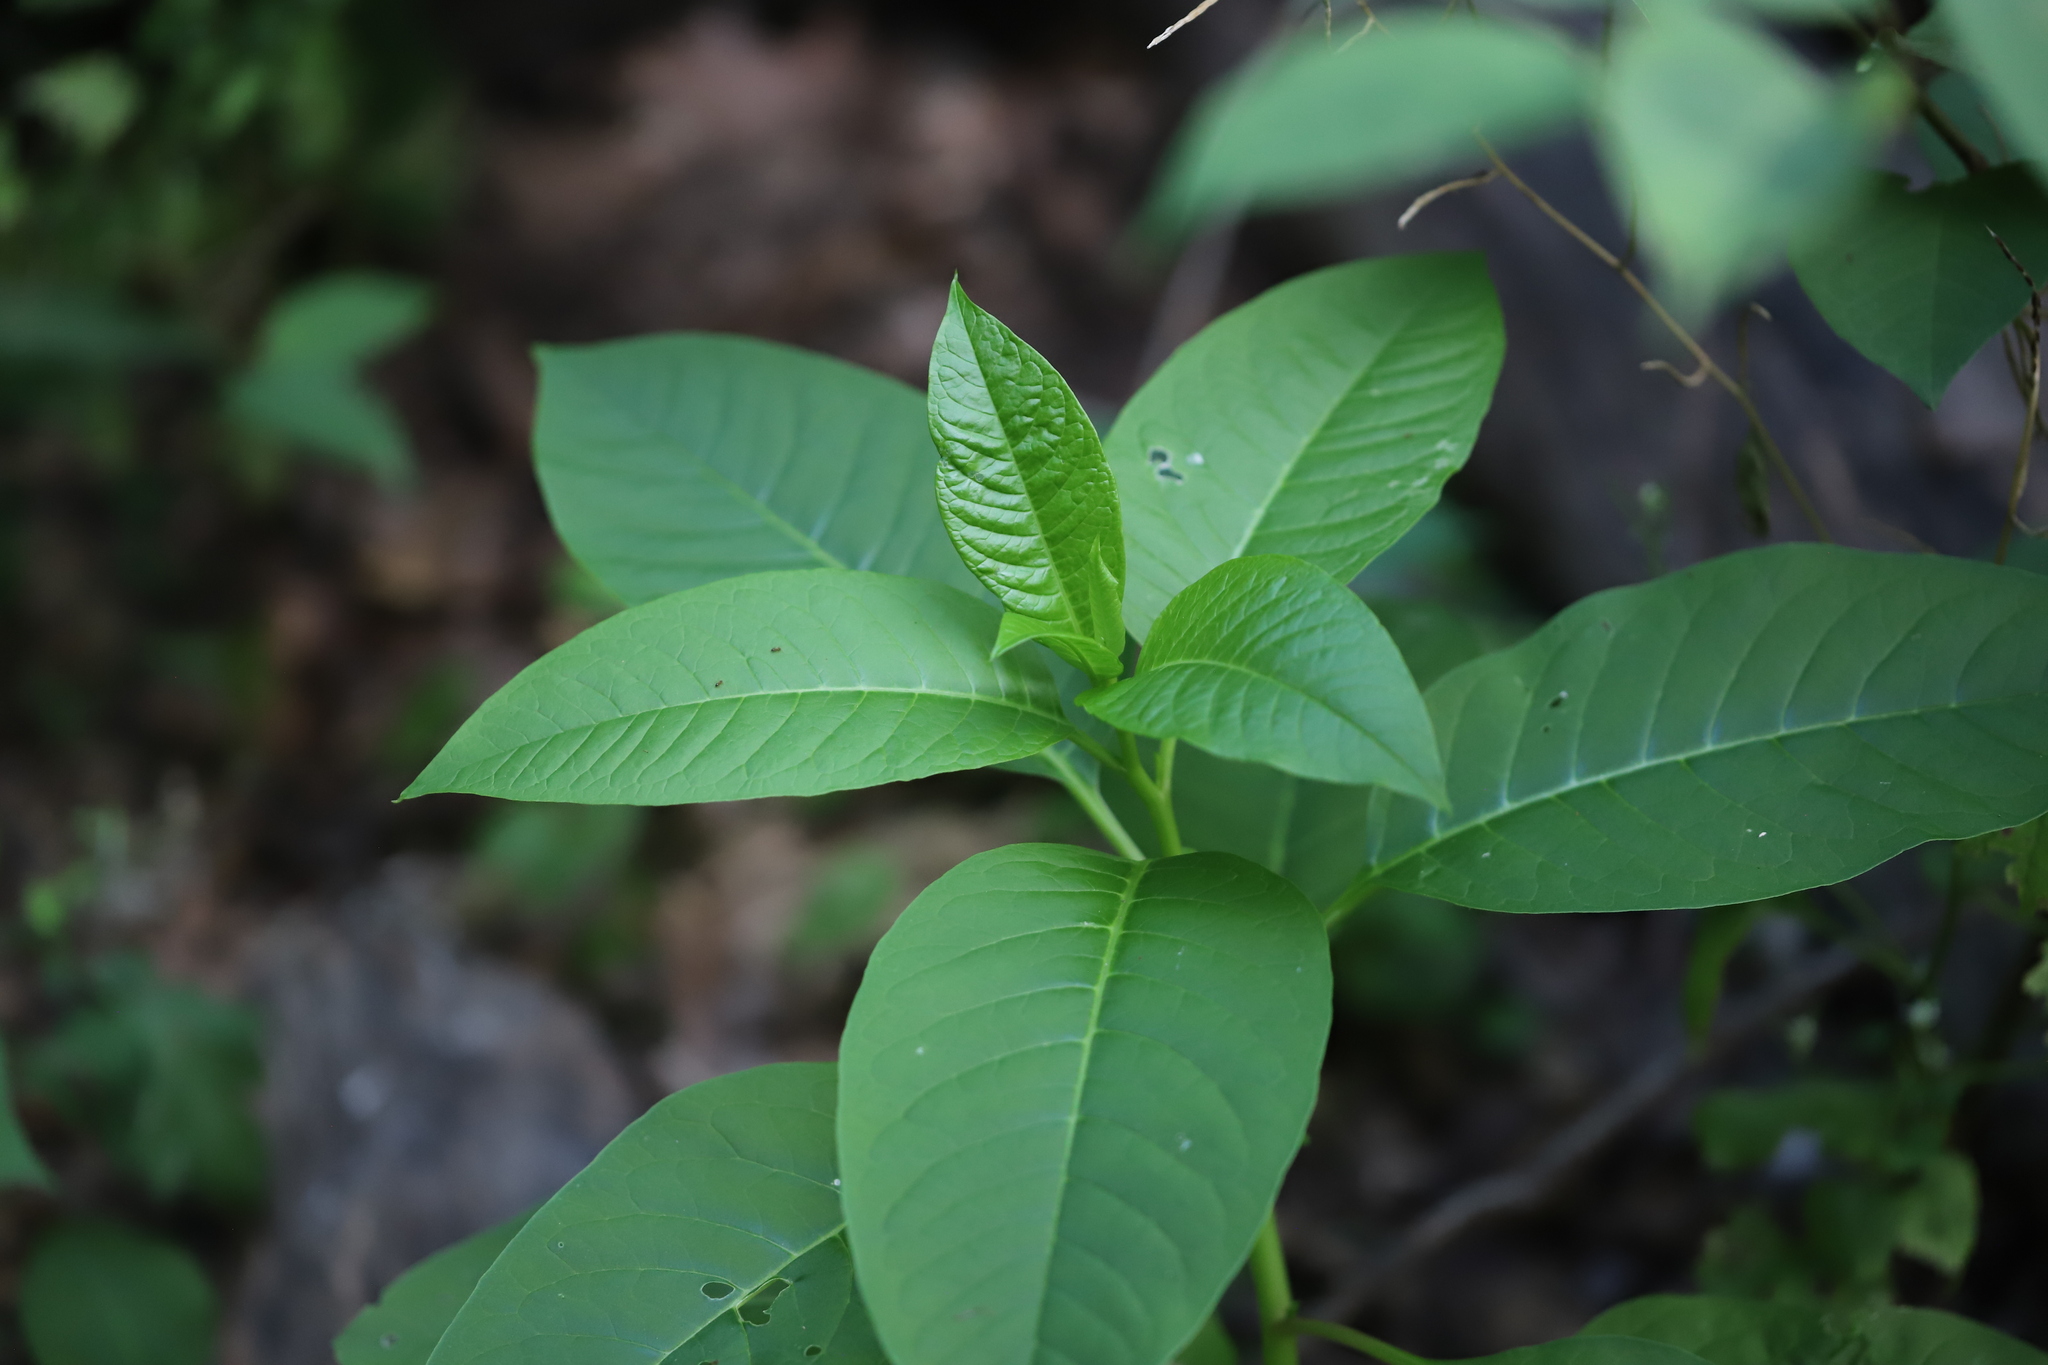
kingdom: Plantae
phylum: Tracheophyta
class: Magnoliopsida
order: Caryophyllales
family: Phytolaccaceae
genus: Phytolacca
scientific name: Phytolacca americana
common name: American pokeweed
